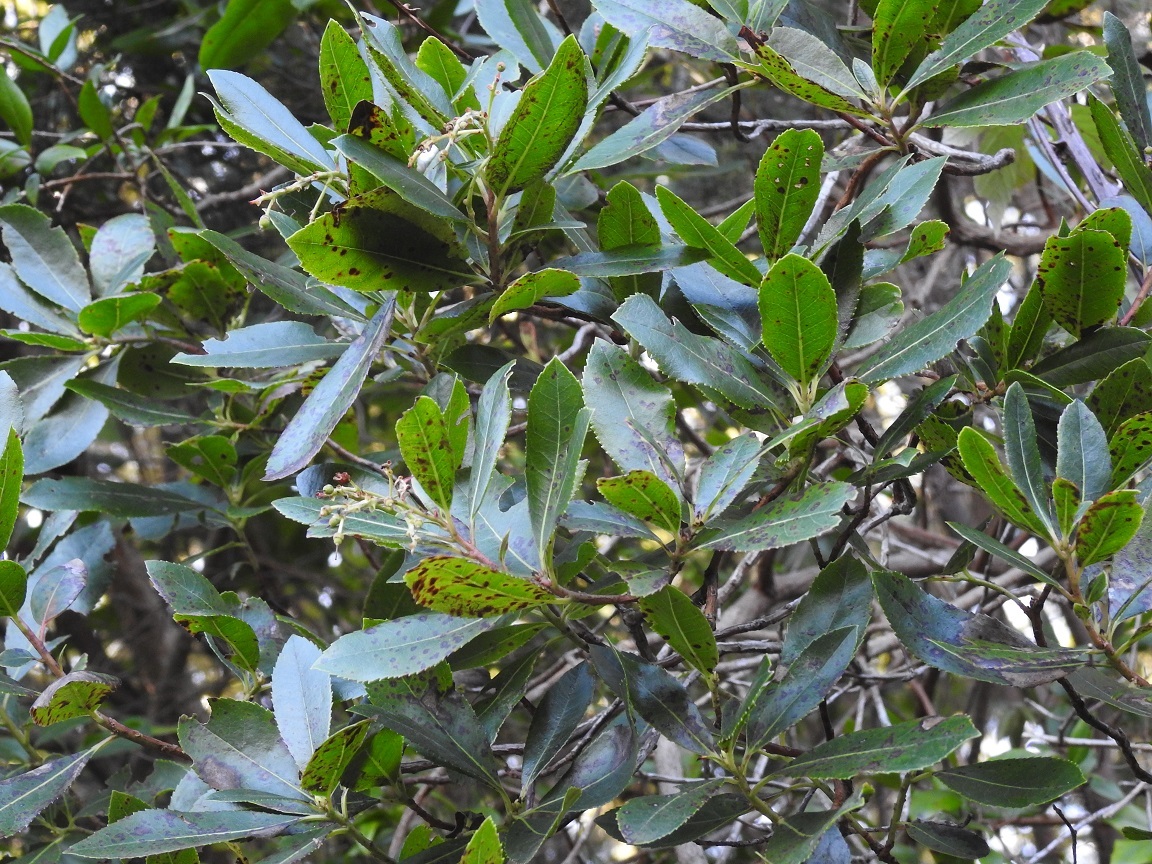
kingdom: Plantae
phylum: Tracheophyta
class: Magnoliopsida
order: Ericales
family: Ericaceae
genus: Arbutus
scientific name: Arbutus unedo
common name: Strawberry-tree
